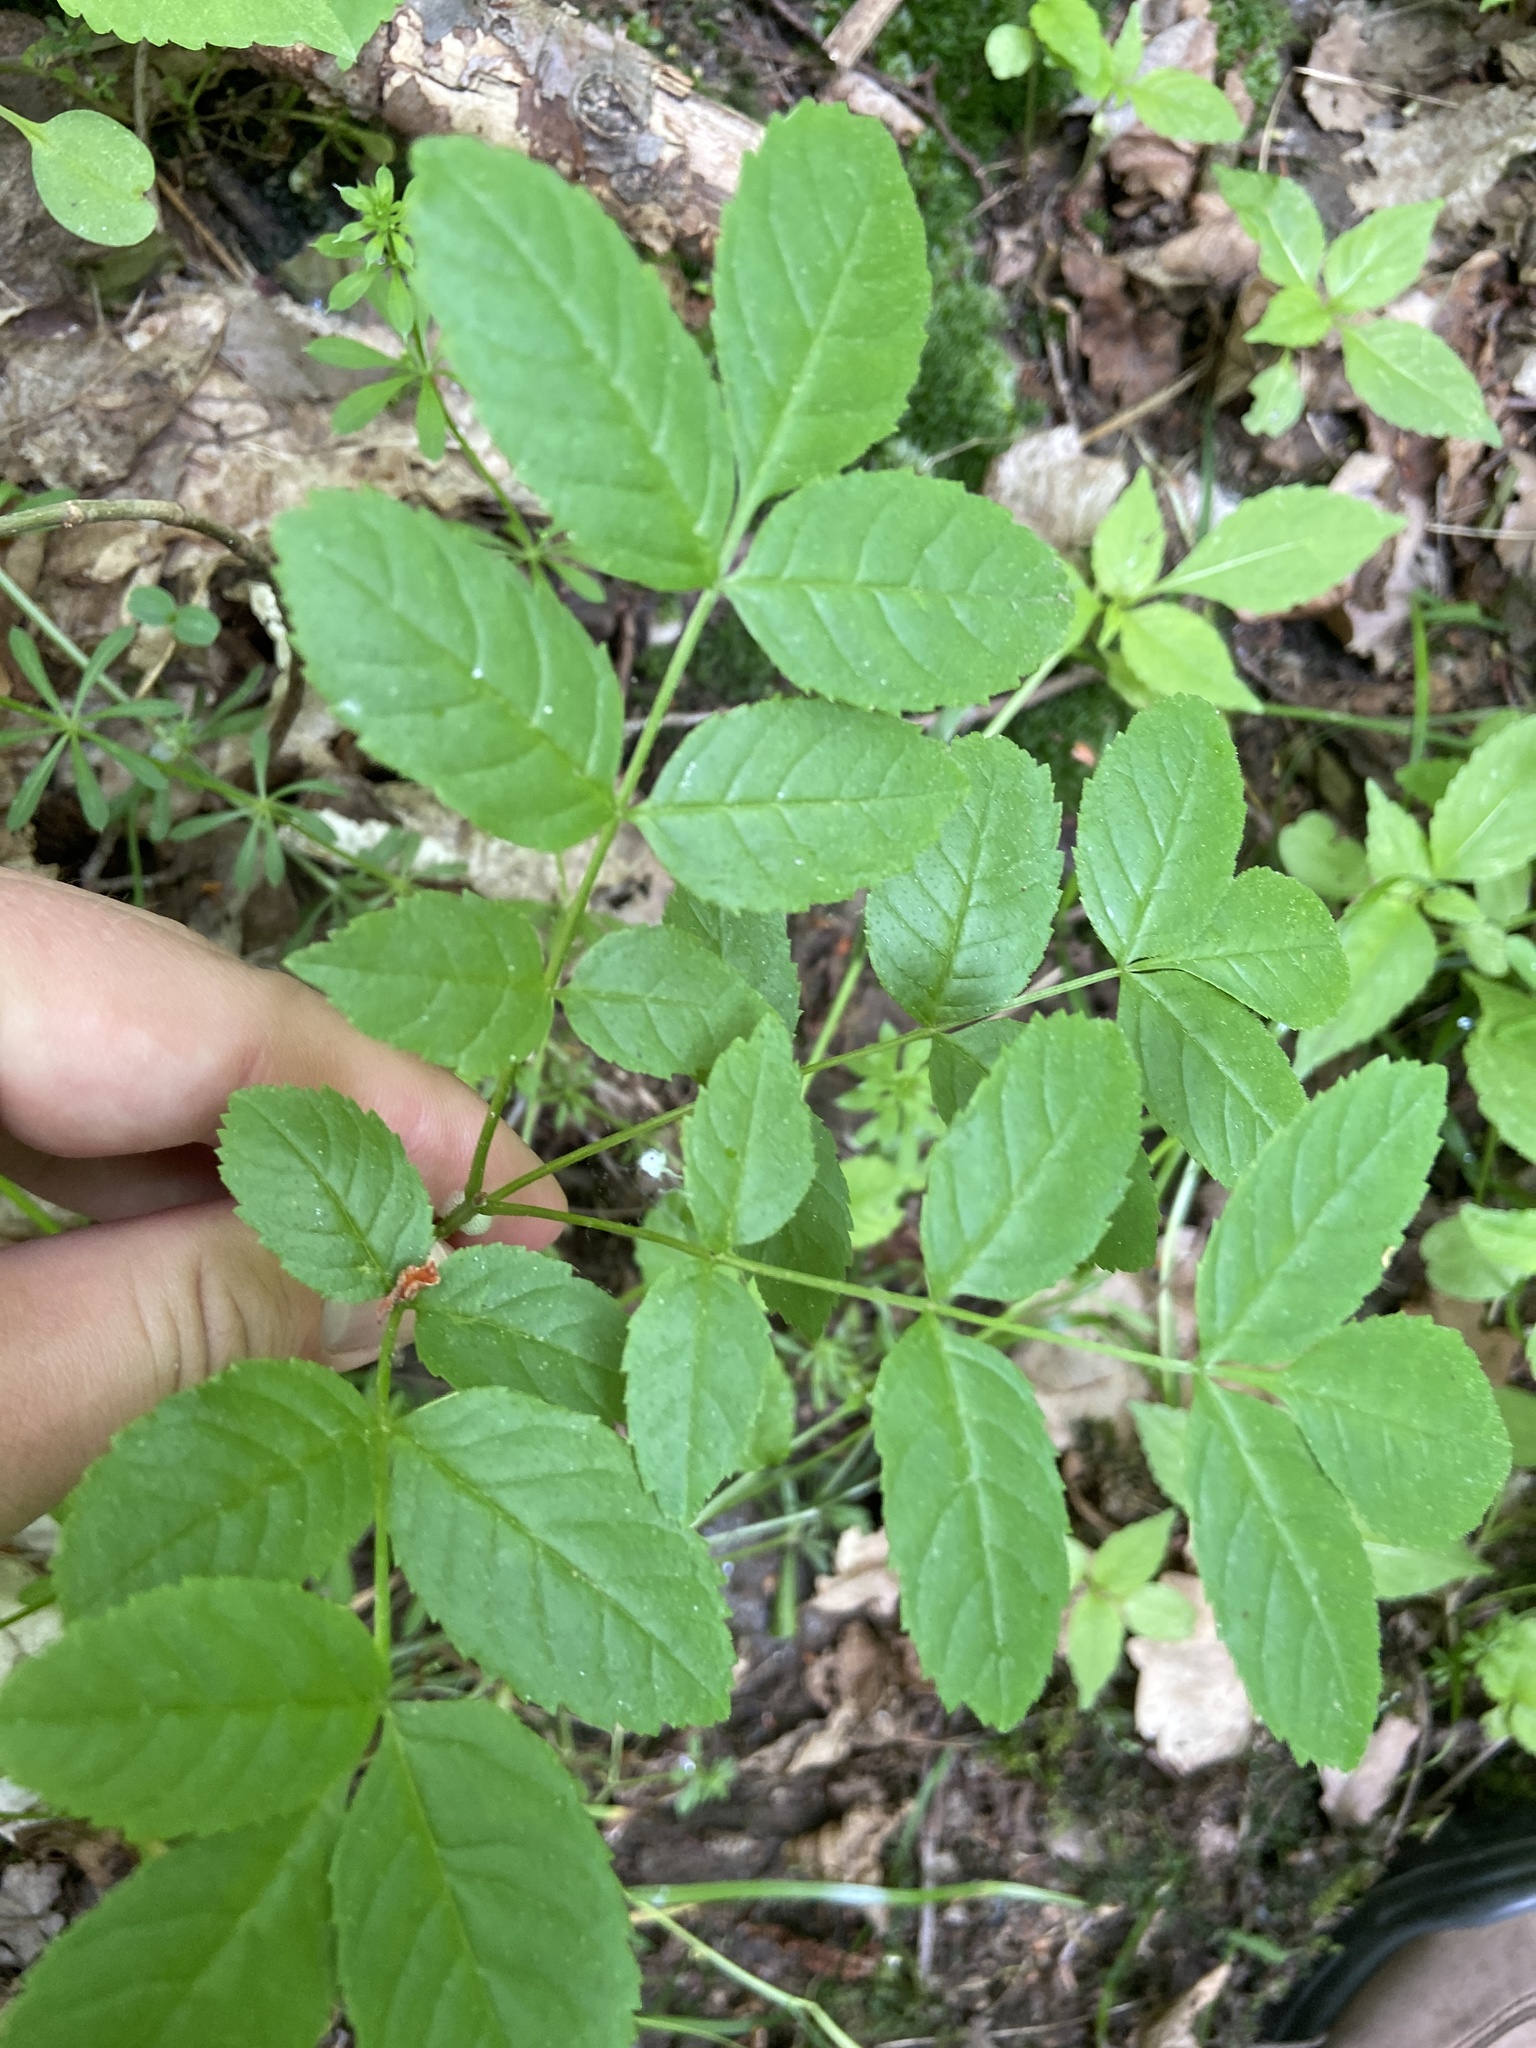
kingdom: Plantae
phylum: Tracheophyta
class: Magnoliopsida
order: Lamiales
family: Oleaceae
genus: Fraxinus
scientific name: Fraxinus excelsior
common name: European ash
